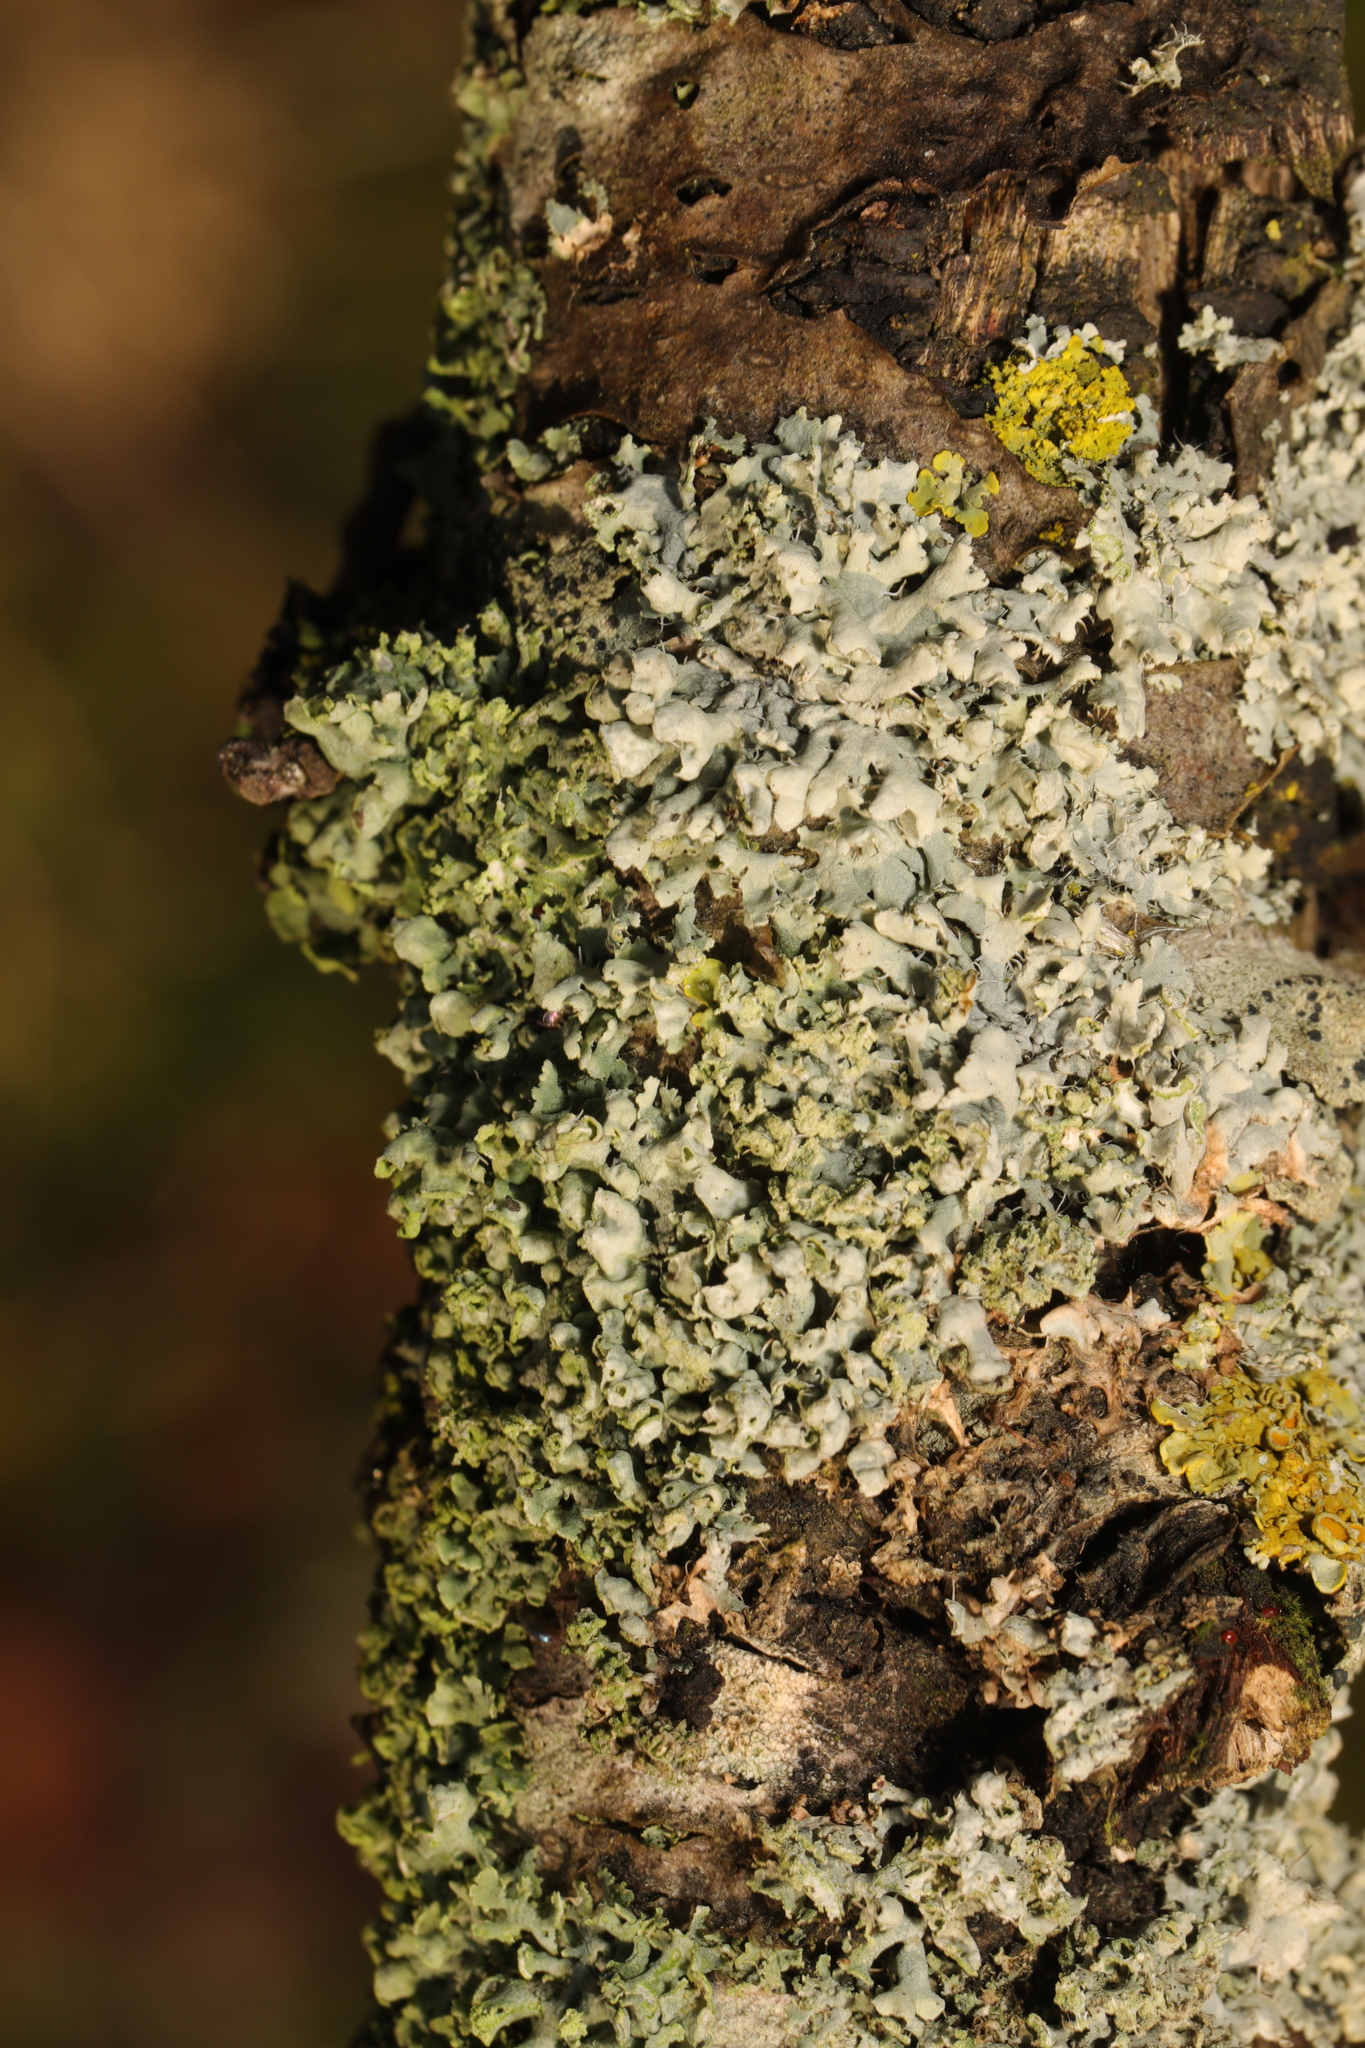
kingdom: Fungi
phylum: Ascomycota
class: Lecanoromycetes
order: Caliciales
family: Physciaceae
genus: Physcia
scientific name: Physcia adscendens
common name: Hooded rosette lichen
